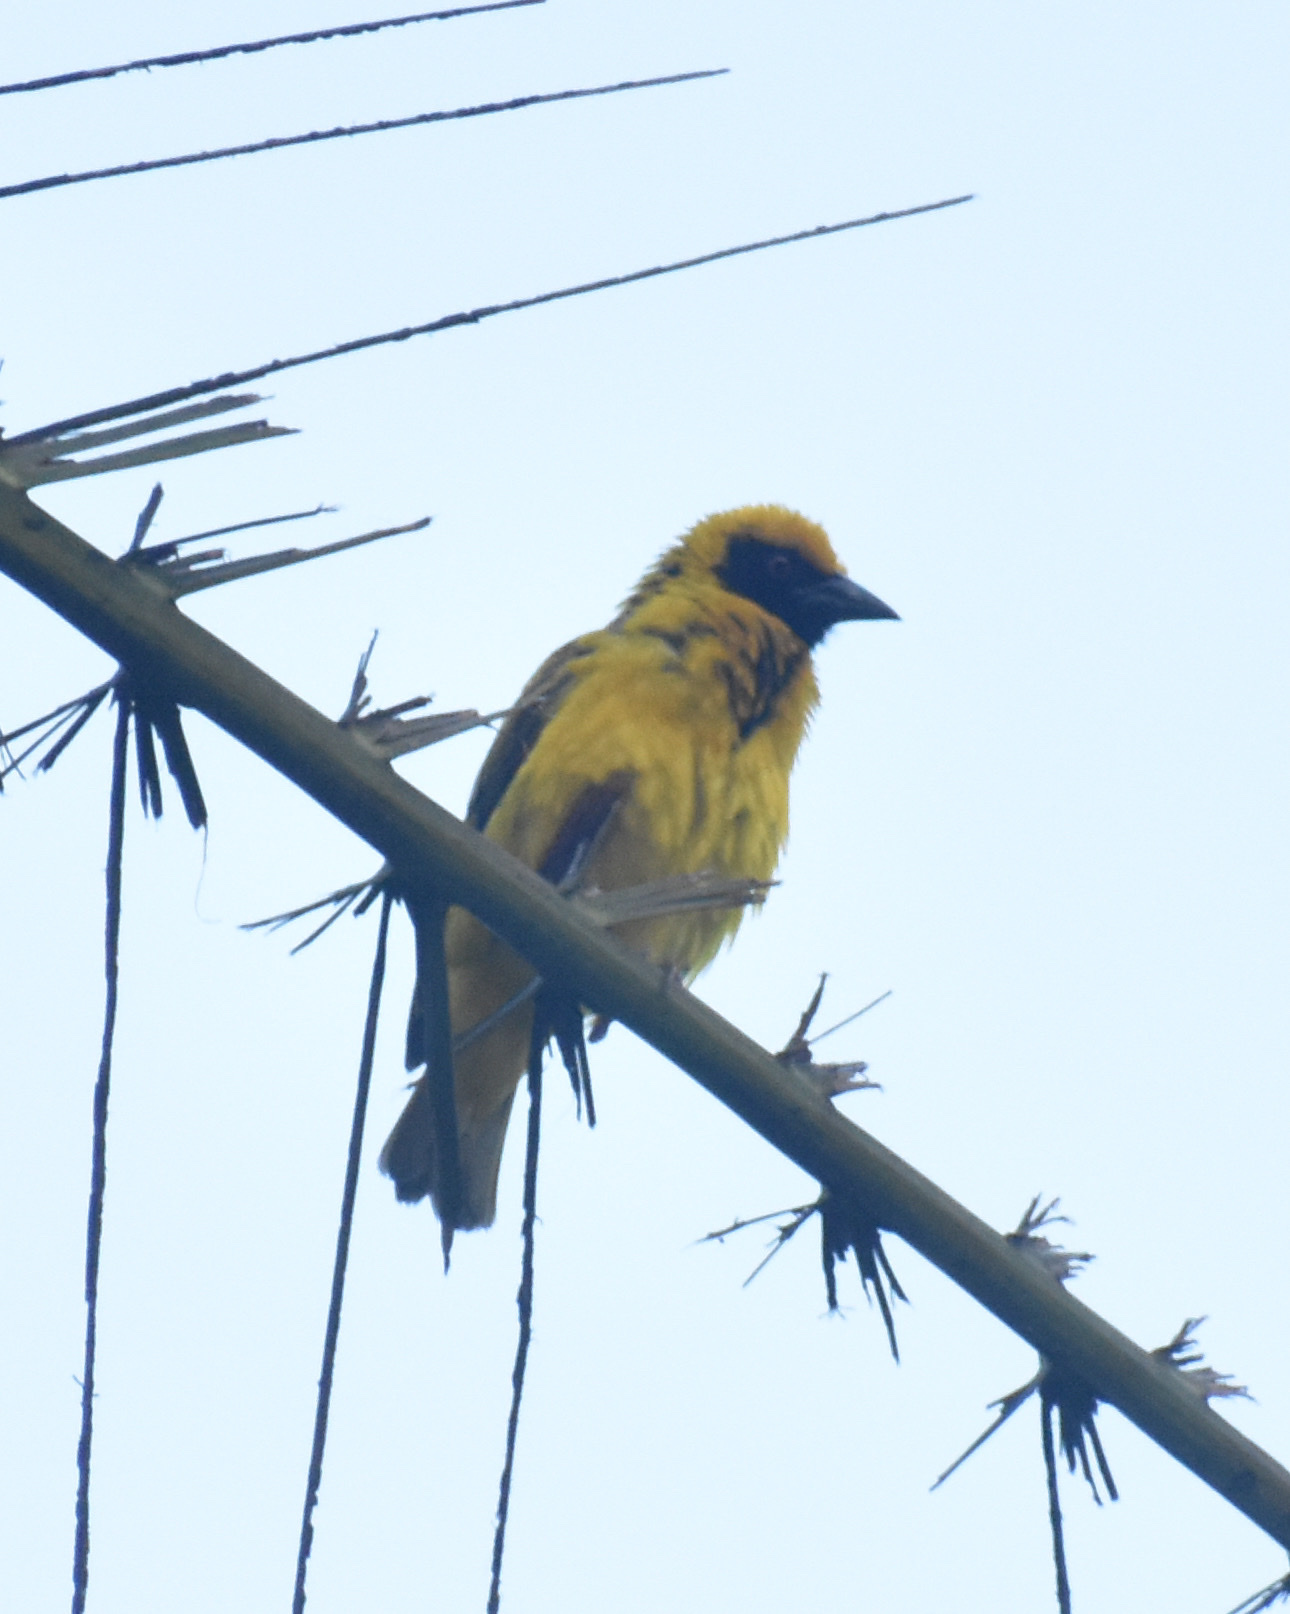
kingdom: Animalia
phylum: Chordata
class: Aves
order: Passeriformes
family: Ploceidae
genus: Ploceus
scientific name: Ploceus cucullatus
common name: Village weaver
